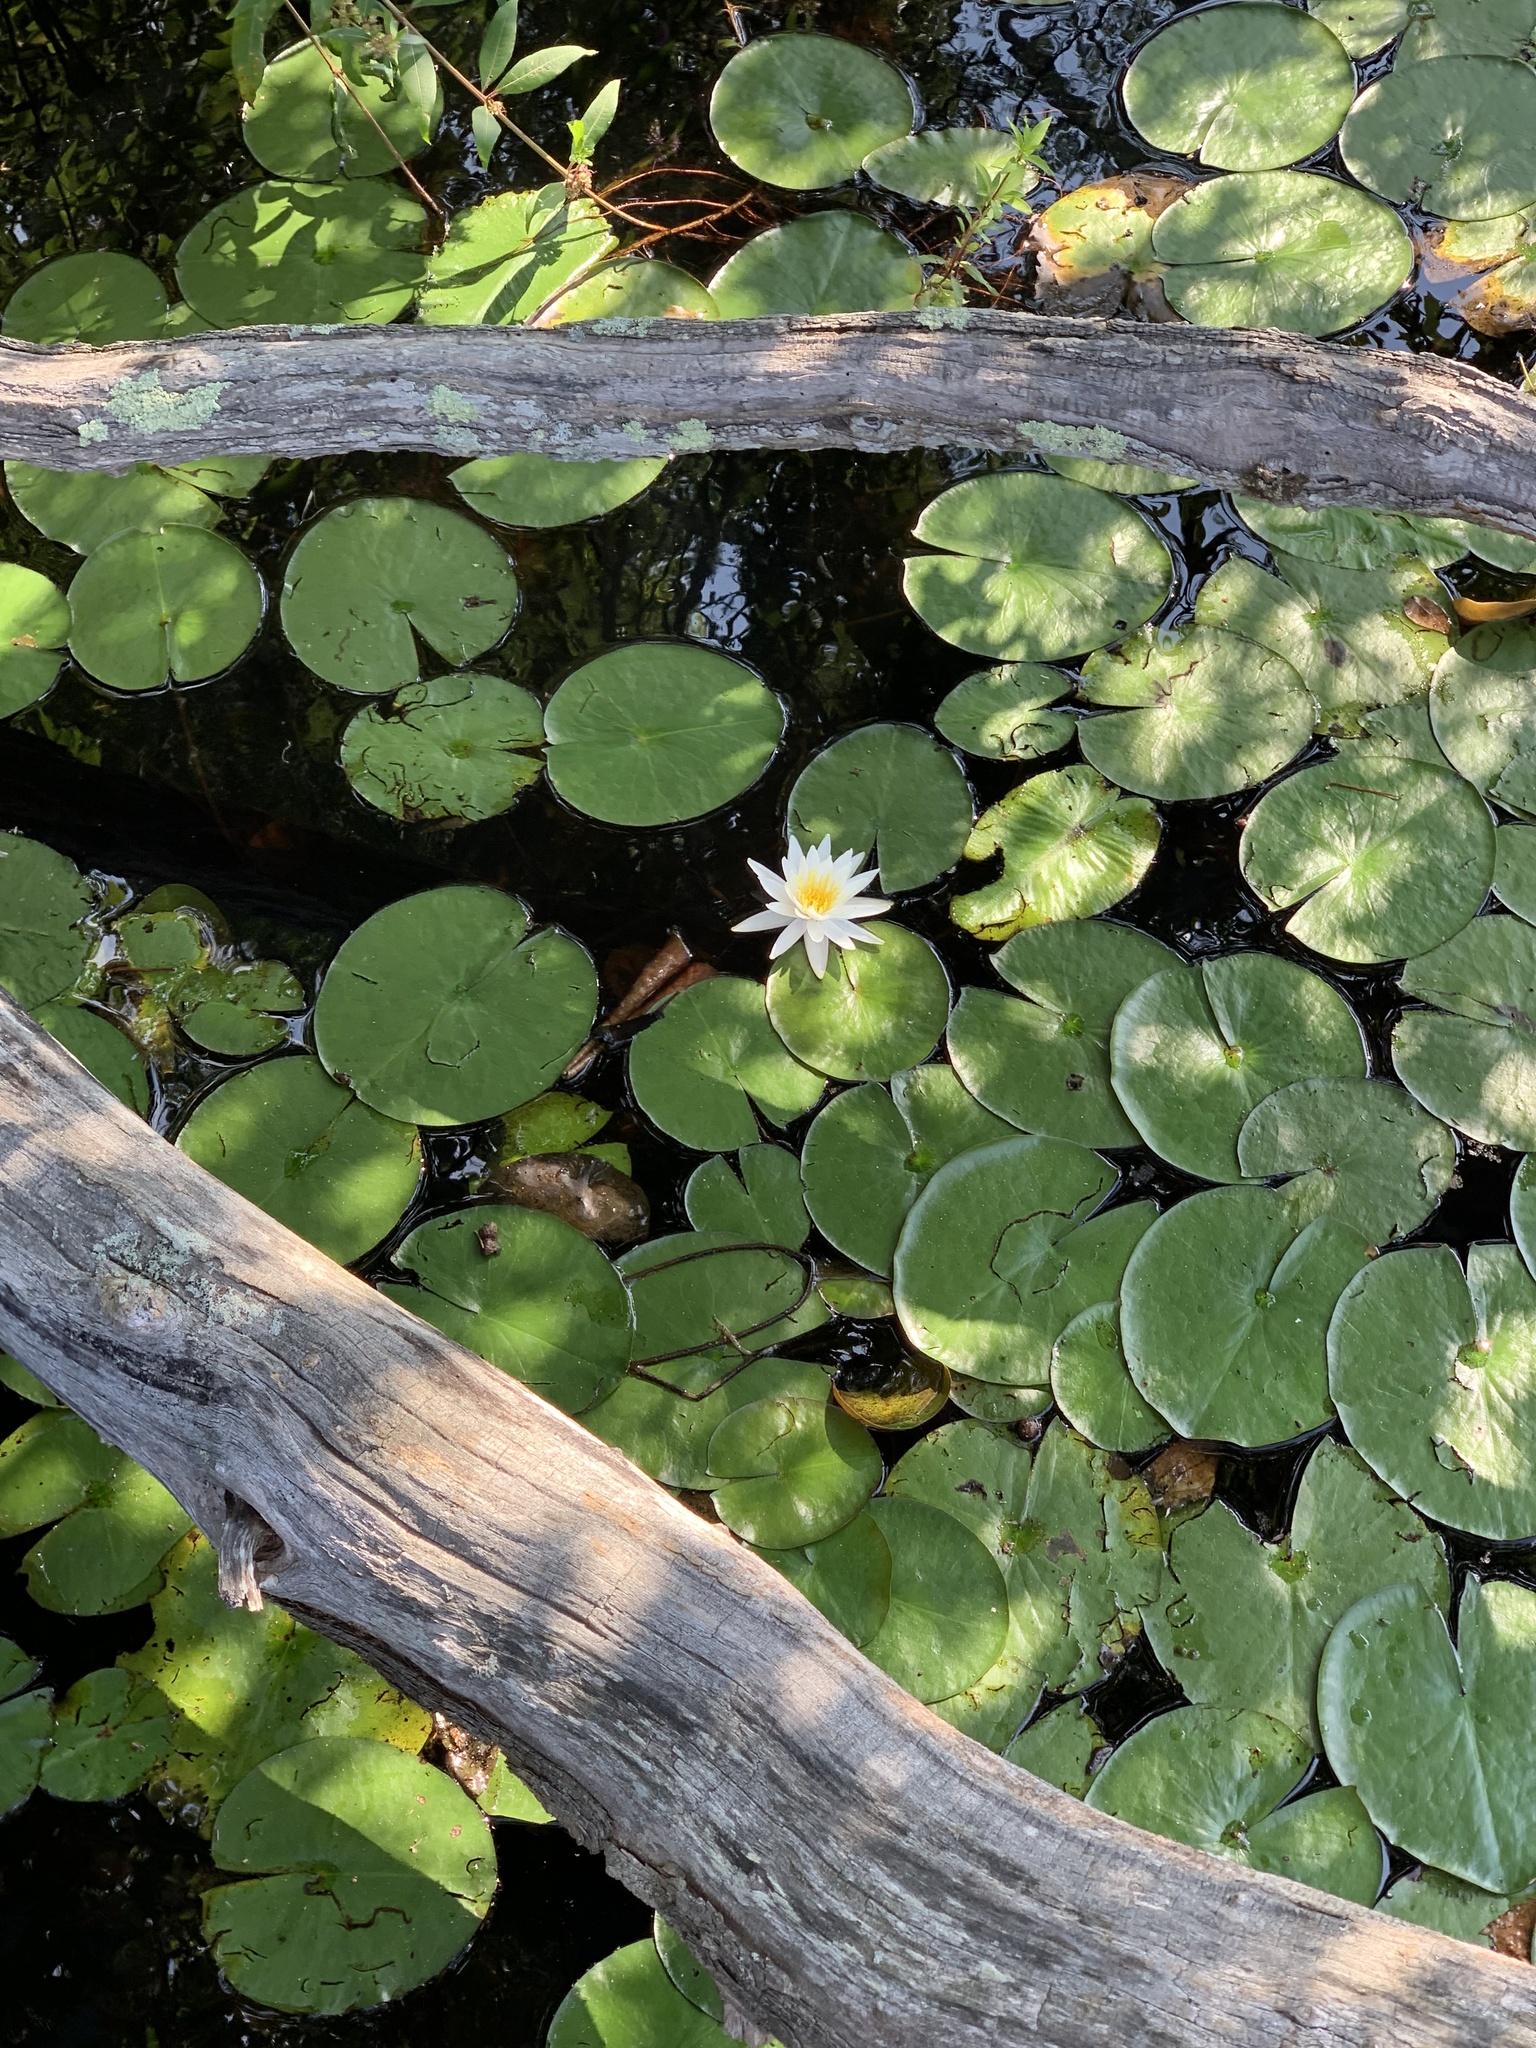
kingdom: Plantae
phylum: Tracheophyta
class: Magnoliopsida
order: Nymphaeales
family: Nymphaeaceae
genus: Nymphaea
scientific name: Nymphaea odorata
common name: Fragrant water-lily
